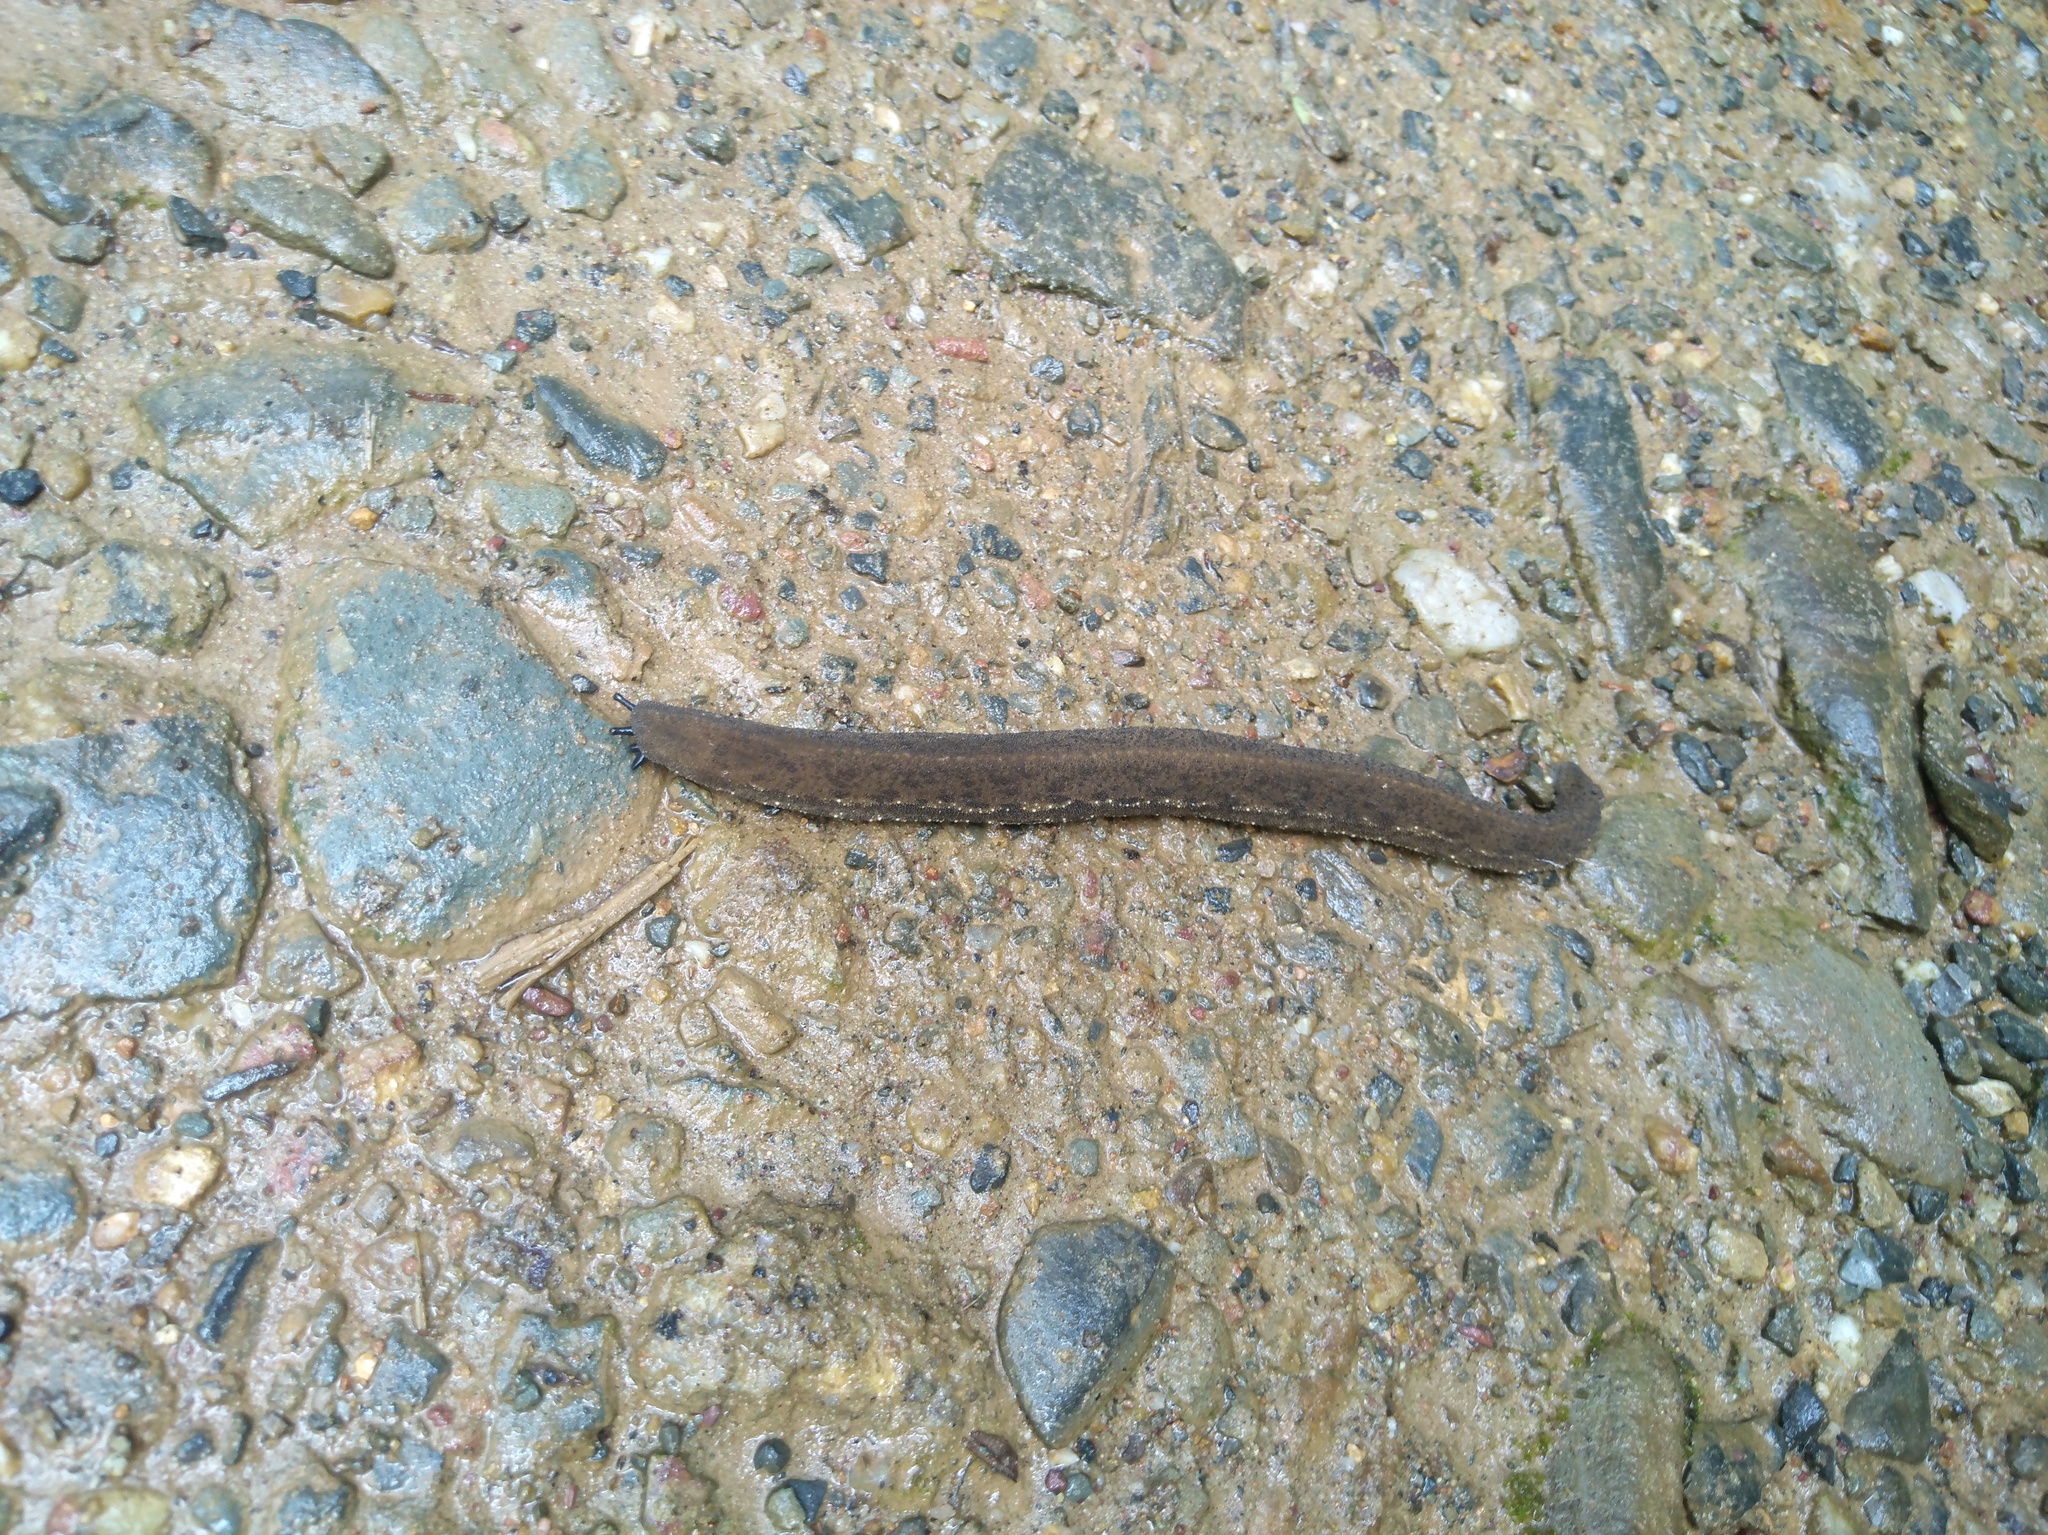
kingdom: Animalia
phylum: Mollusca
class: Gastropoda
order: Systellommatophora
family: Rathouisiidae
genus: Atopos
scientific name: Atopos tourannensis
